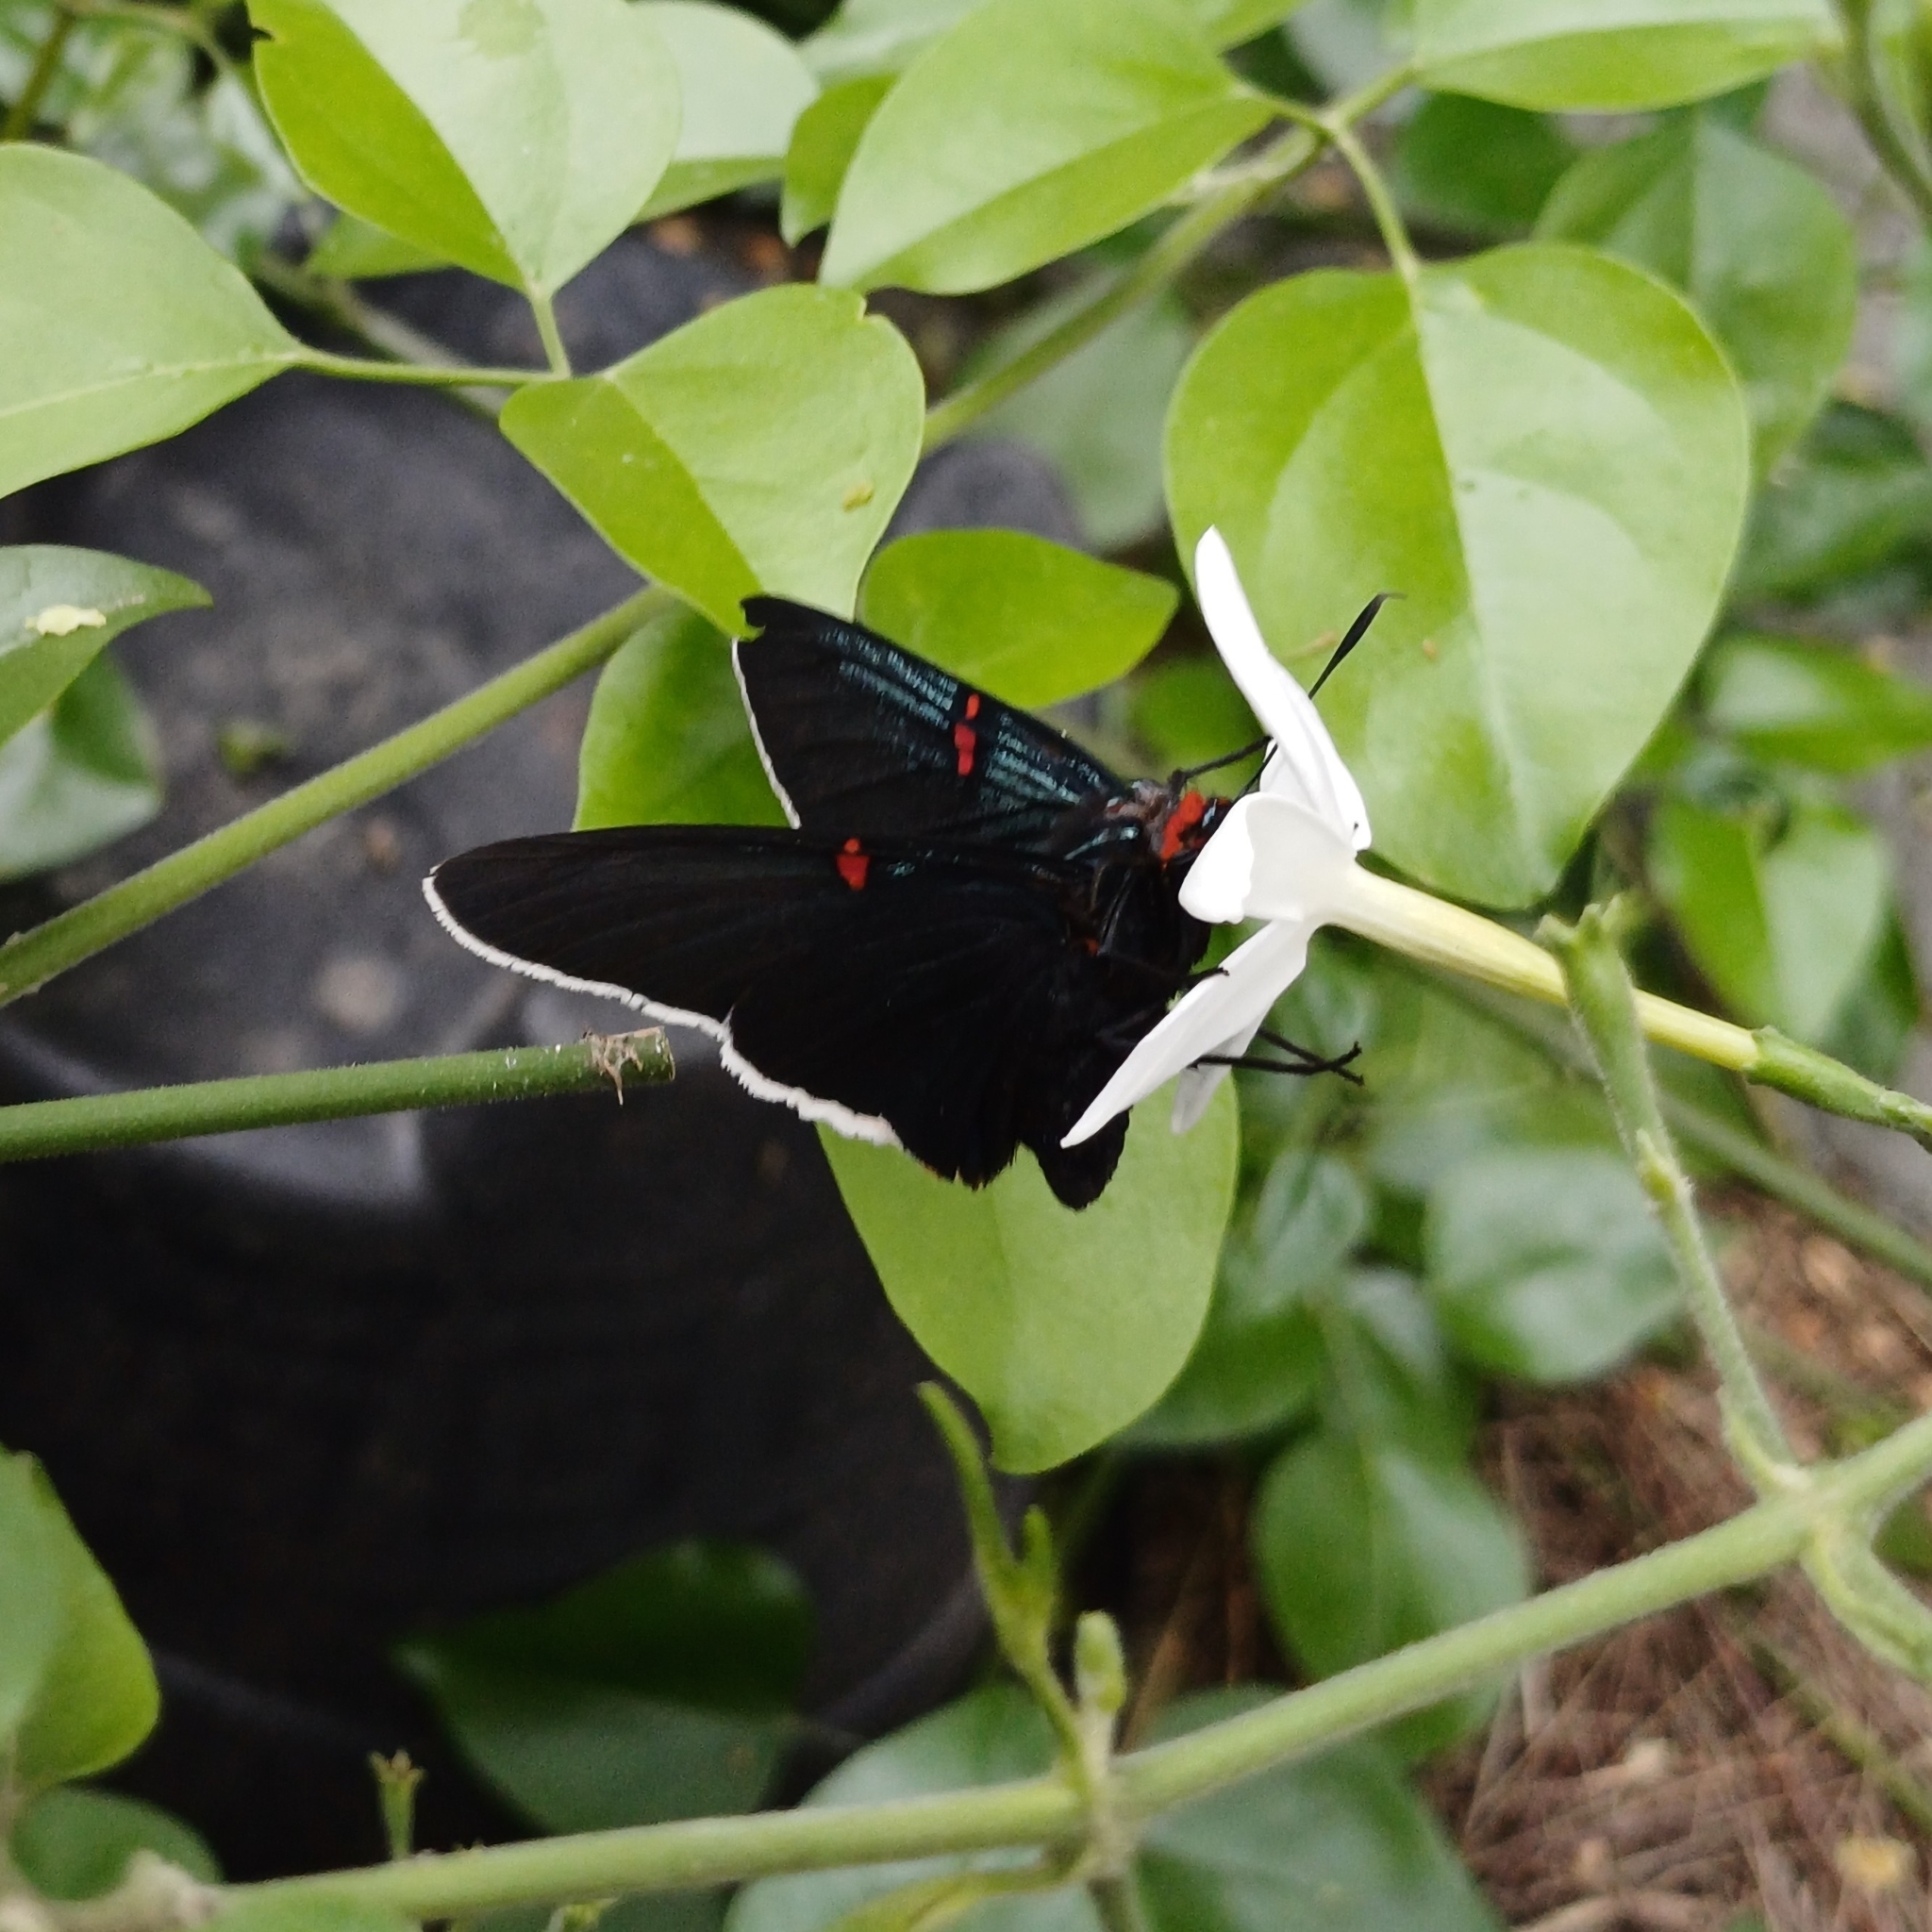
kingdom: Animalia
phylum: Arthropoda
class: Insecta
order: Lepidoptera
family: Hesperiidae
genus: Phocides
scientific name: Phocides polybius
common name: Guava skipper
